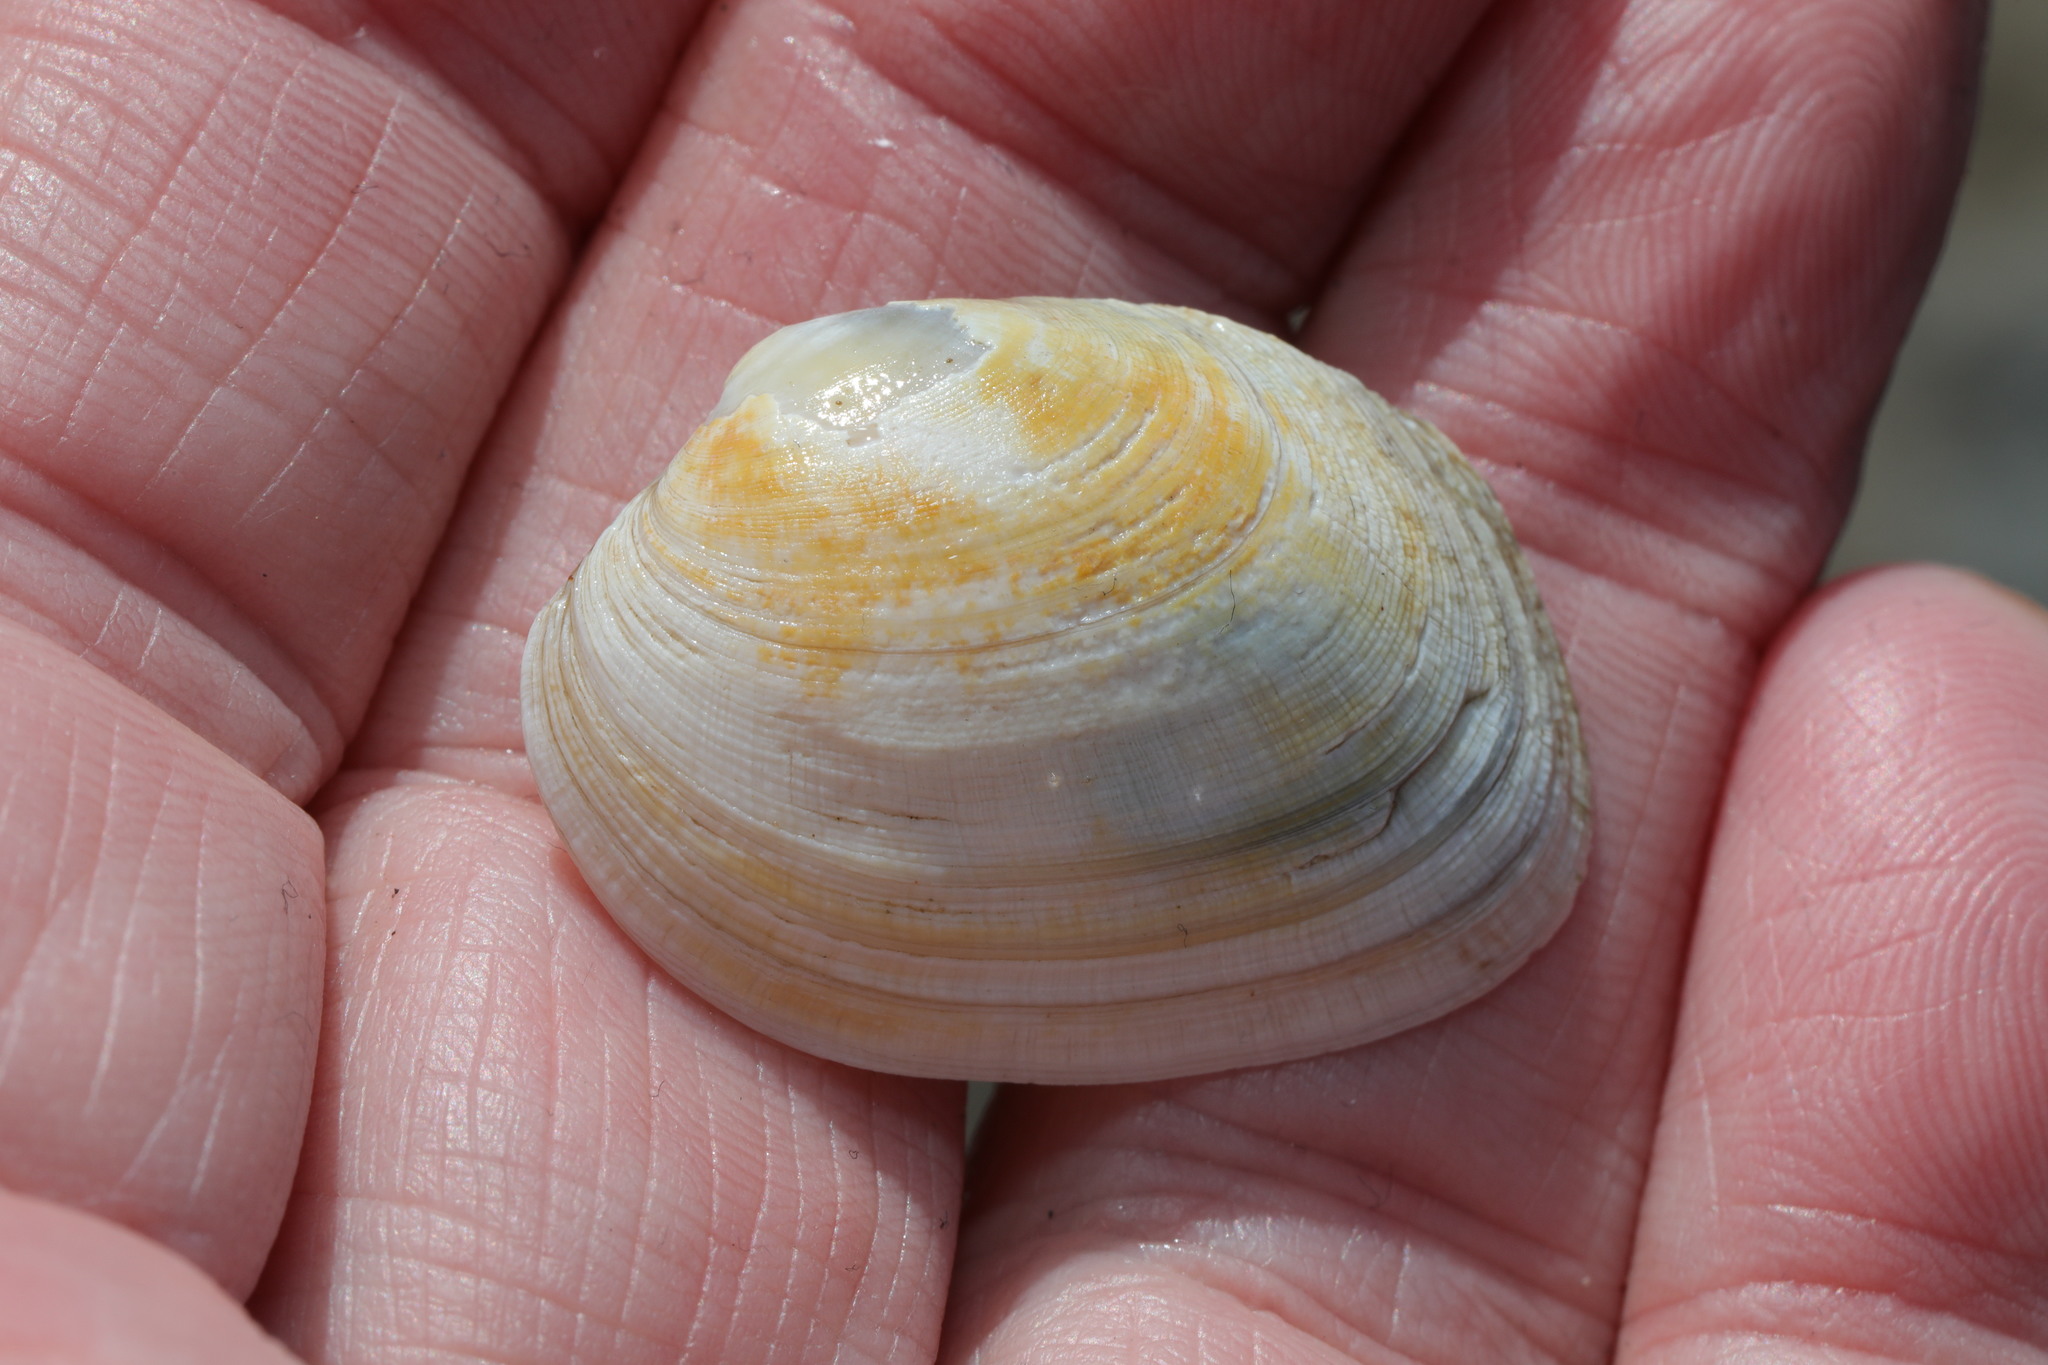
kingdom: Animalia
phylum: Mollusca
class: Bivalvia
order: Venerida
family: Veneridae
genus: Venerupis
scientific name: Venerupis corrugata
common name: Pullet carpet shell
